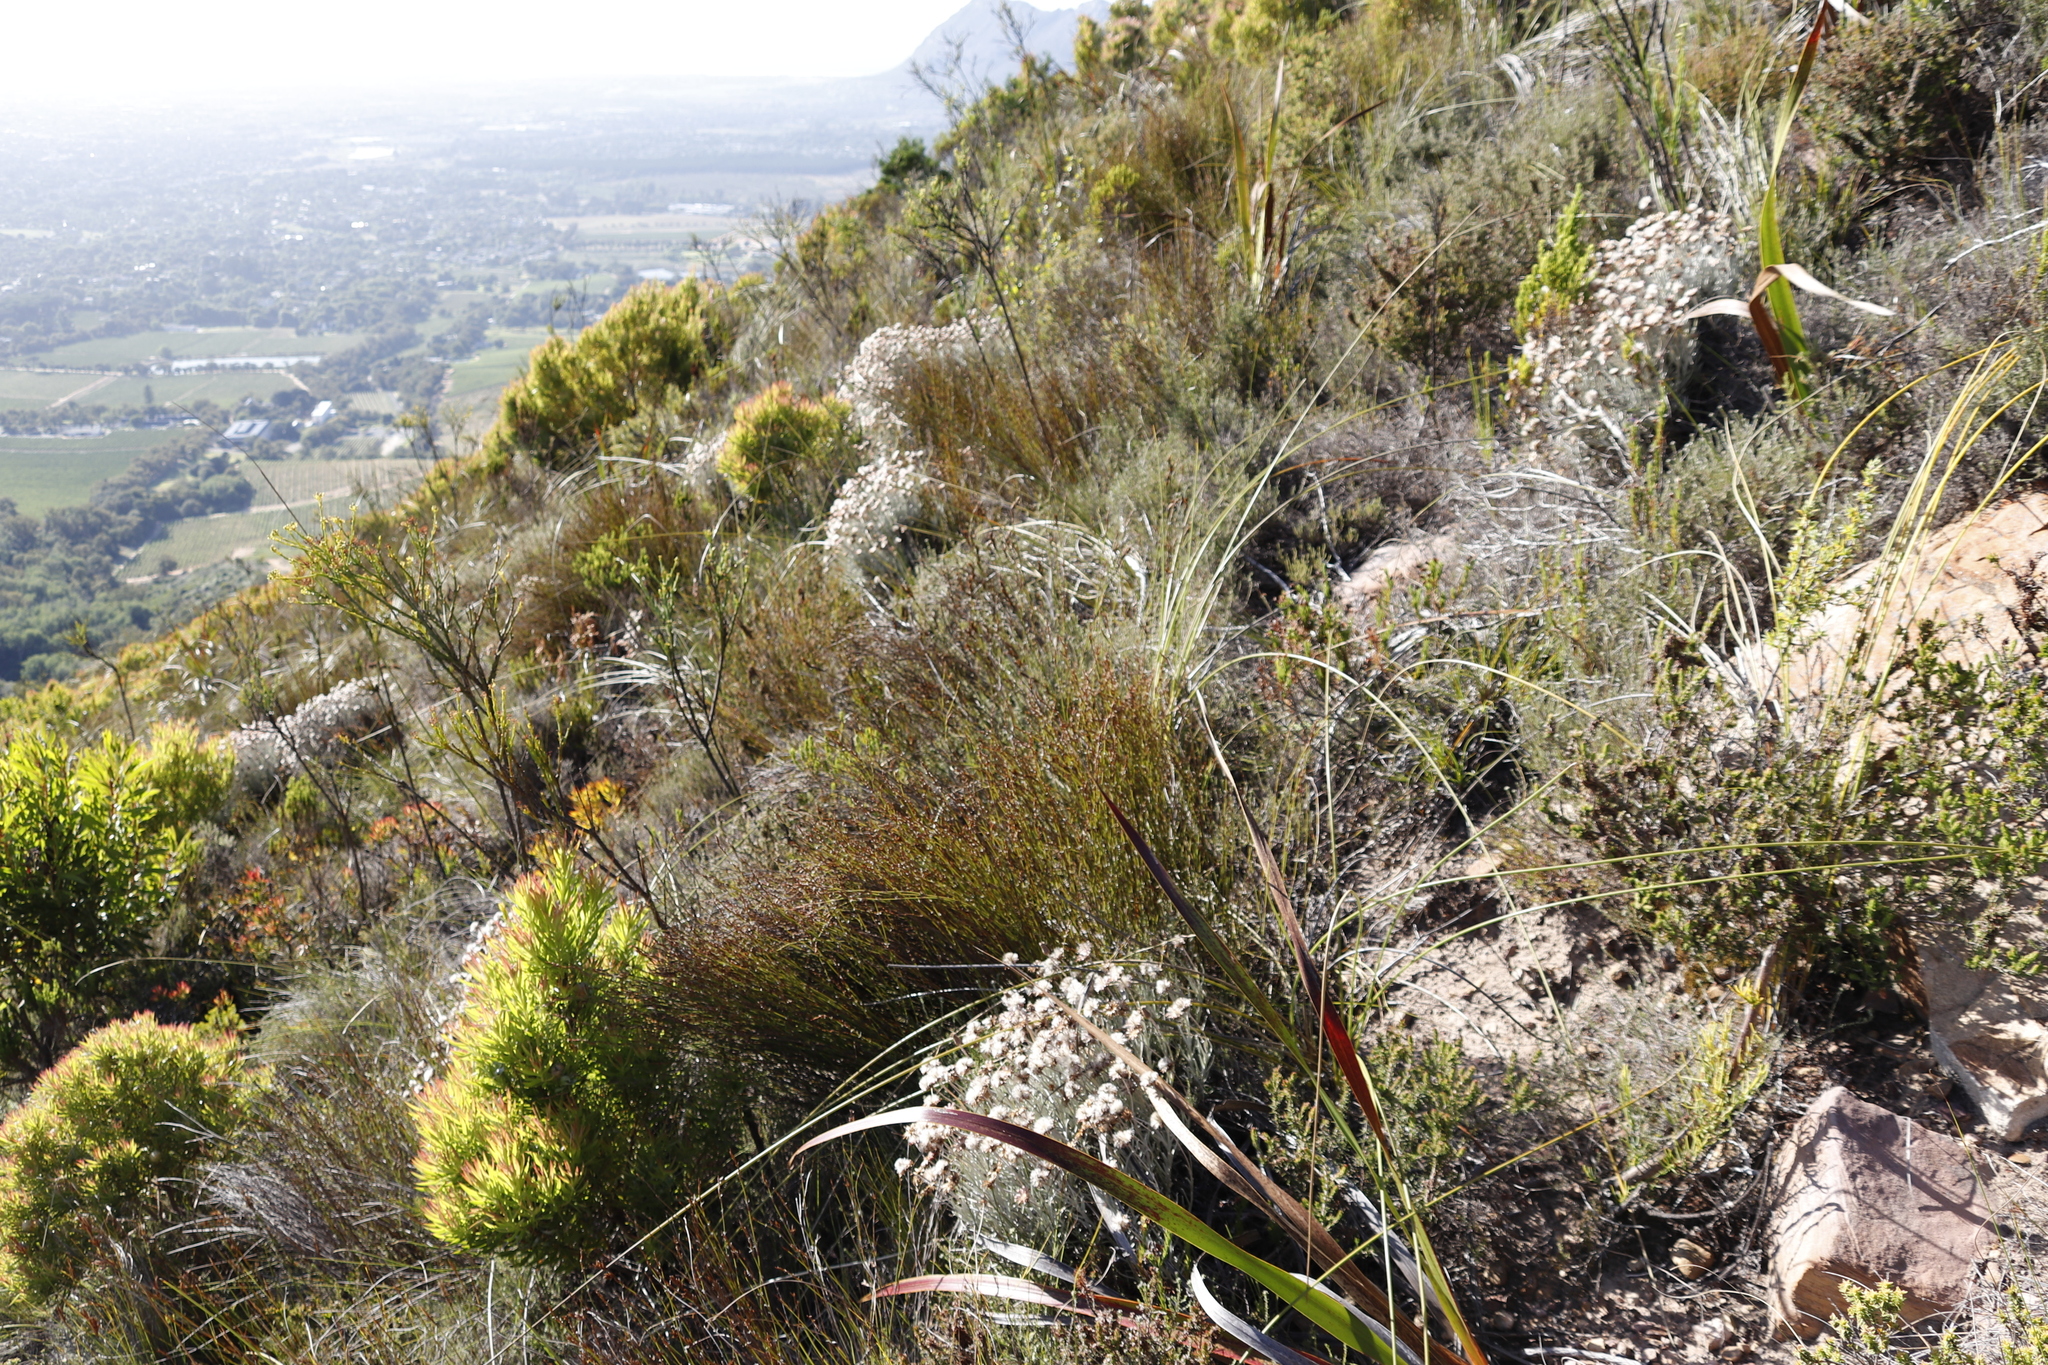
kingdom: Plantae
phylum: Tracheophyta
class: Magnoliopsida
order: Asterales
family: Asteraceae
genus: Helichrysum
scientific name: Helichrysum teretifolium
